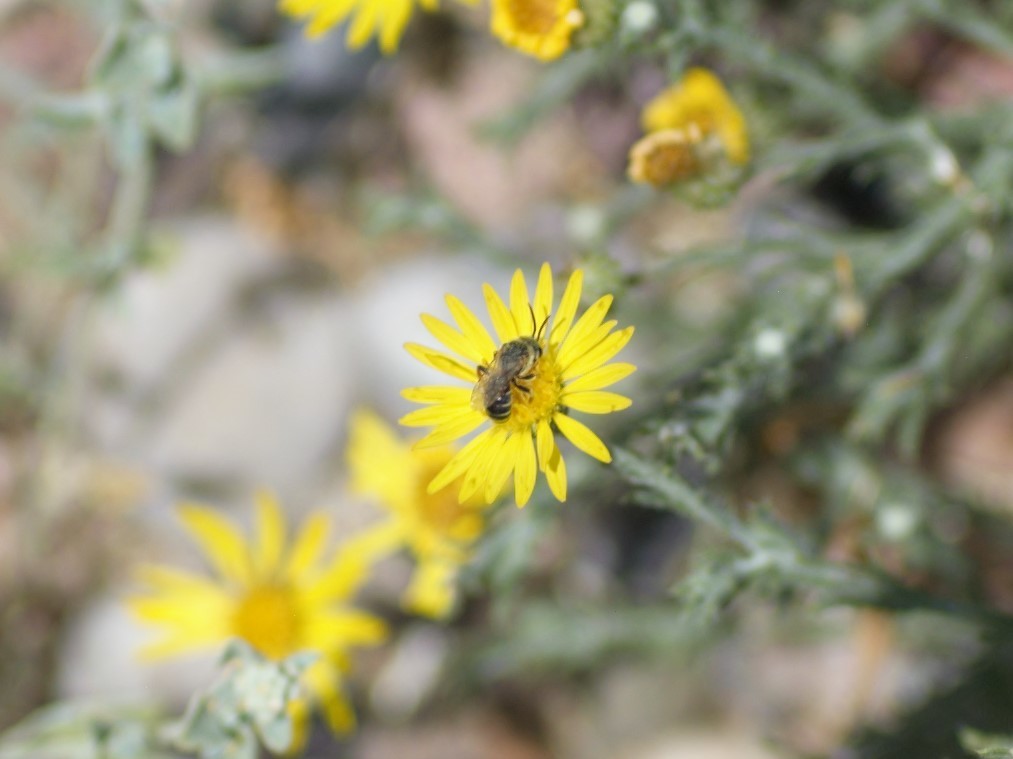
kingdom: Animalia
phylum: Arthropoda
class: Insecta
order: Hymenoptera
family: Halictidae
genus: Halictus
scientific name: Halictus ligatus
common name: Ligated furrow bee
